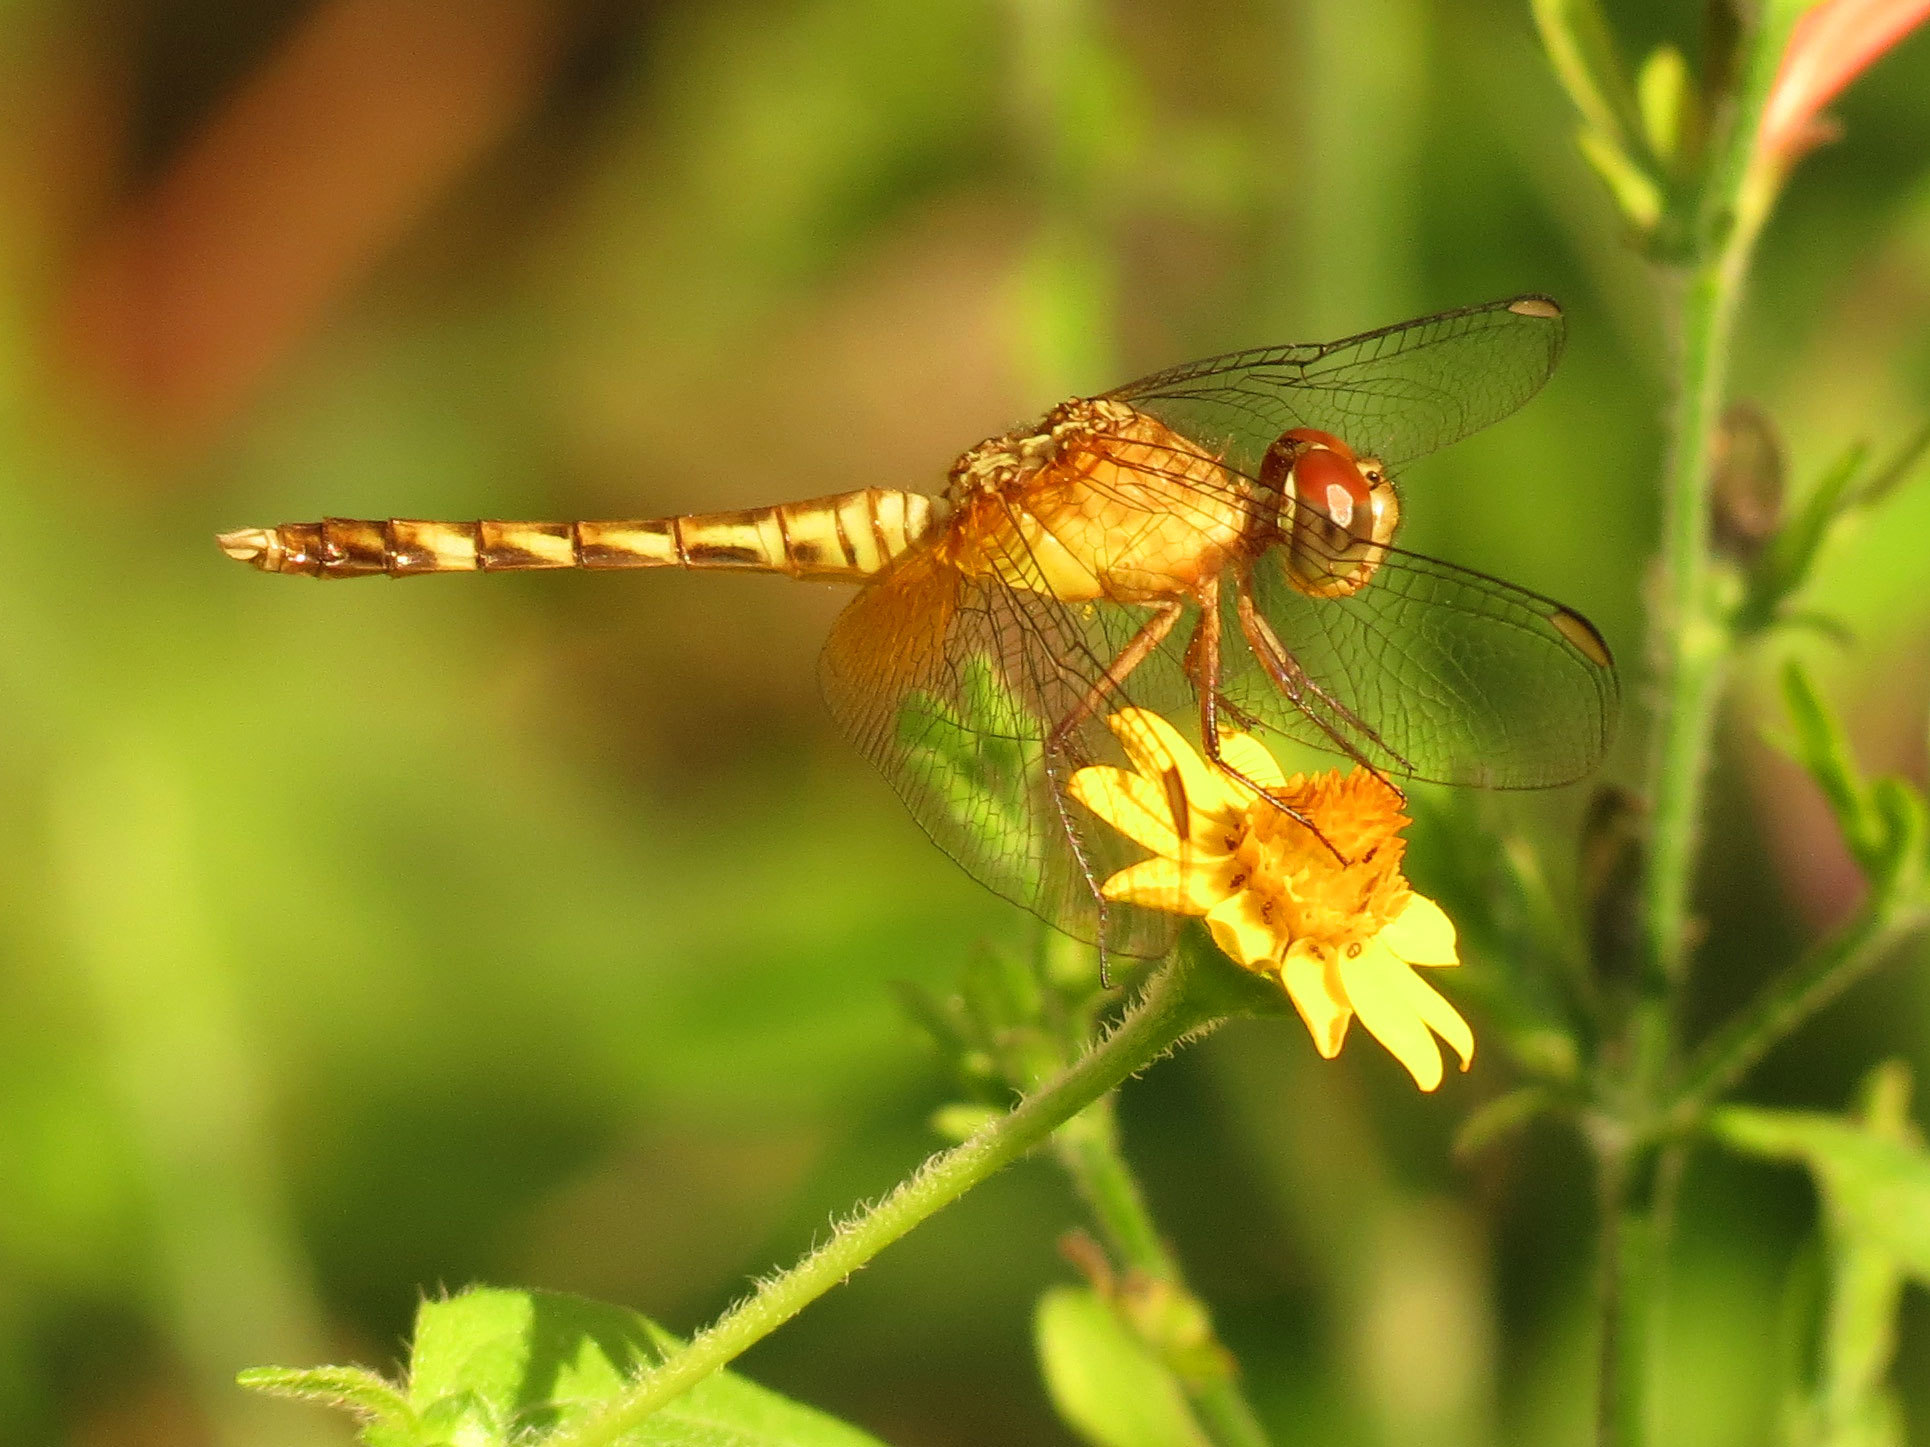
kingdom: Animalia
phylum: Arthropoda
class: Insecta
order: Odonata
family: Libellulidae
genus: Erythrodiplax
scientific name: Erythrodiplax fervida
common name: Red-mantled dragonlet
